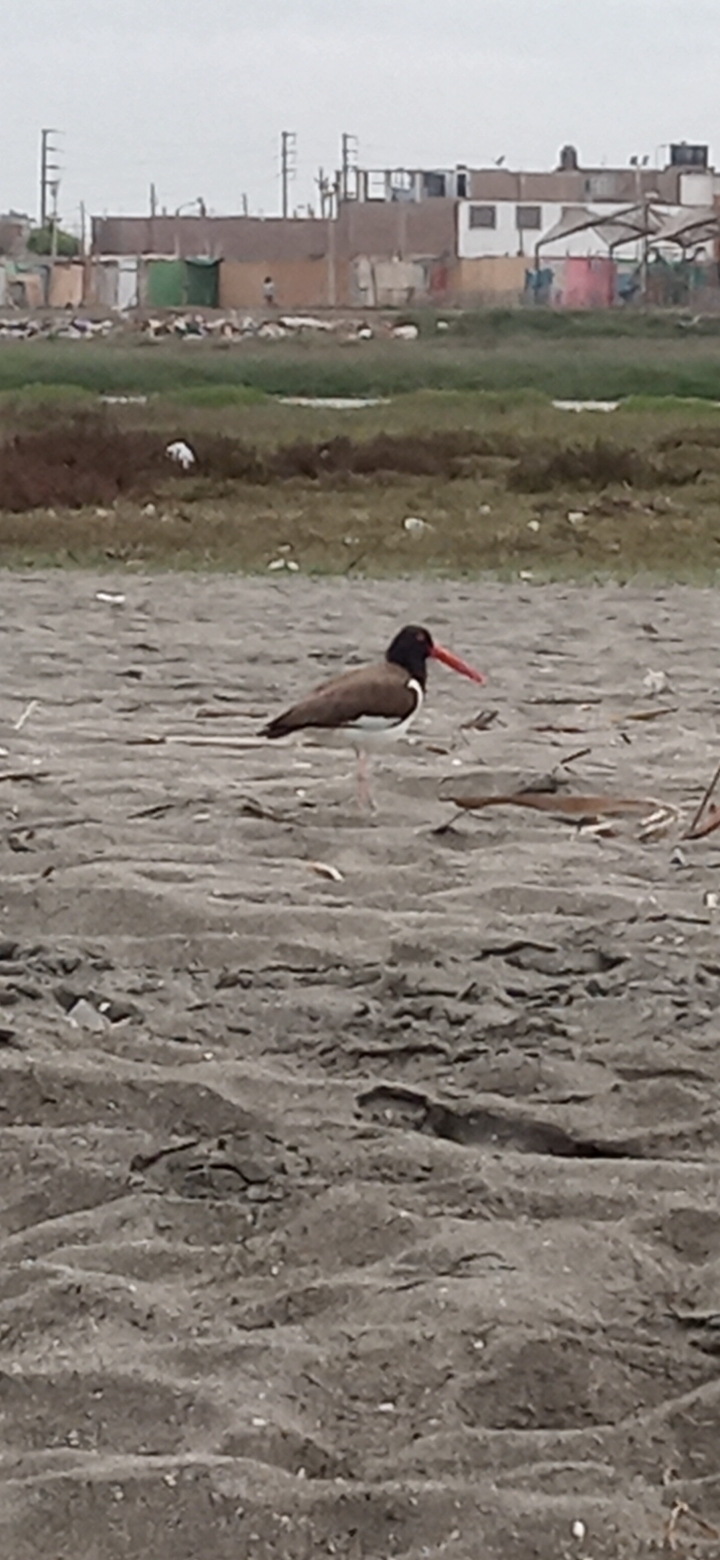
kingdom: Animalia
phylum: Chordata
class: Aves
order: Charadriiformes
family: Haematopodidae
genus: Haematopus
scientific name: Haematopus palliatus
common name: American oystercatcher
